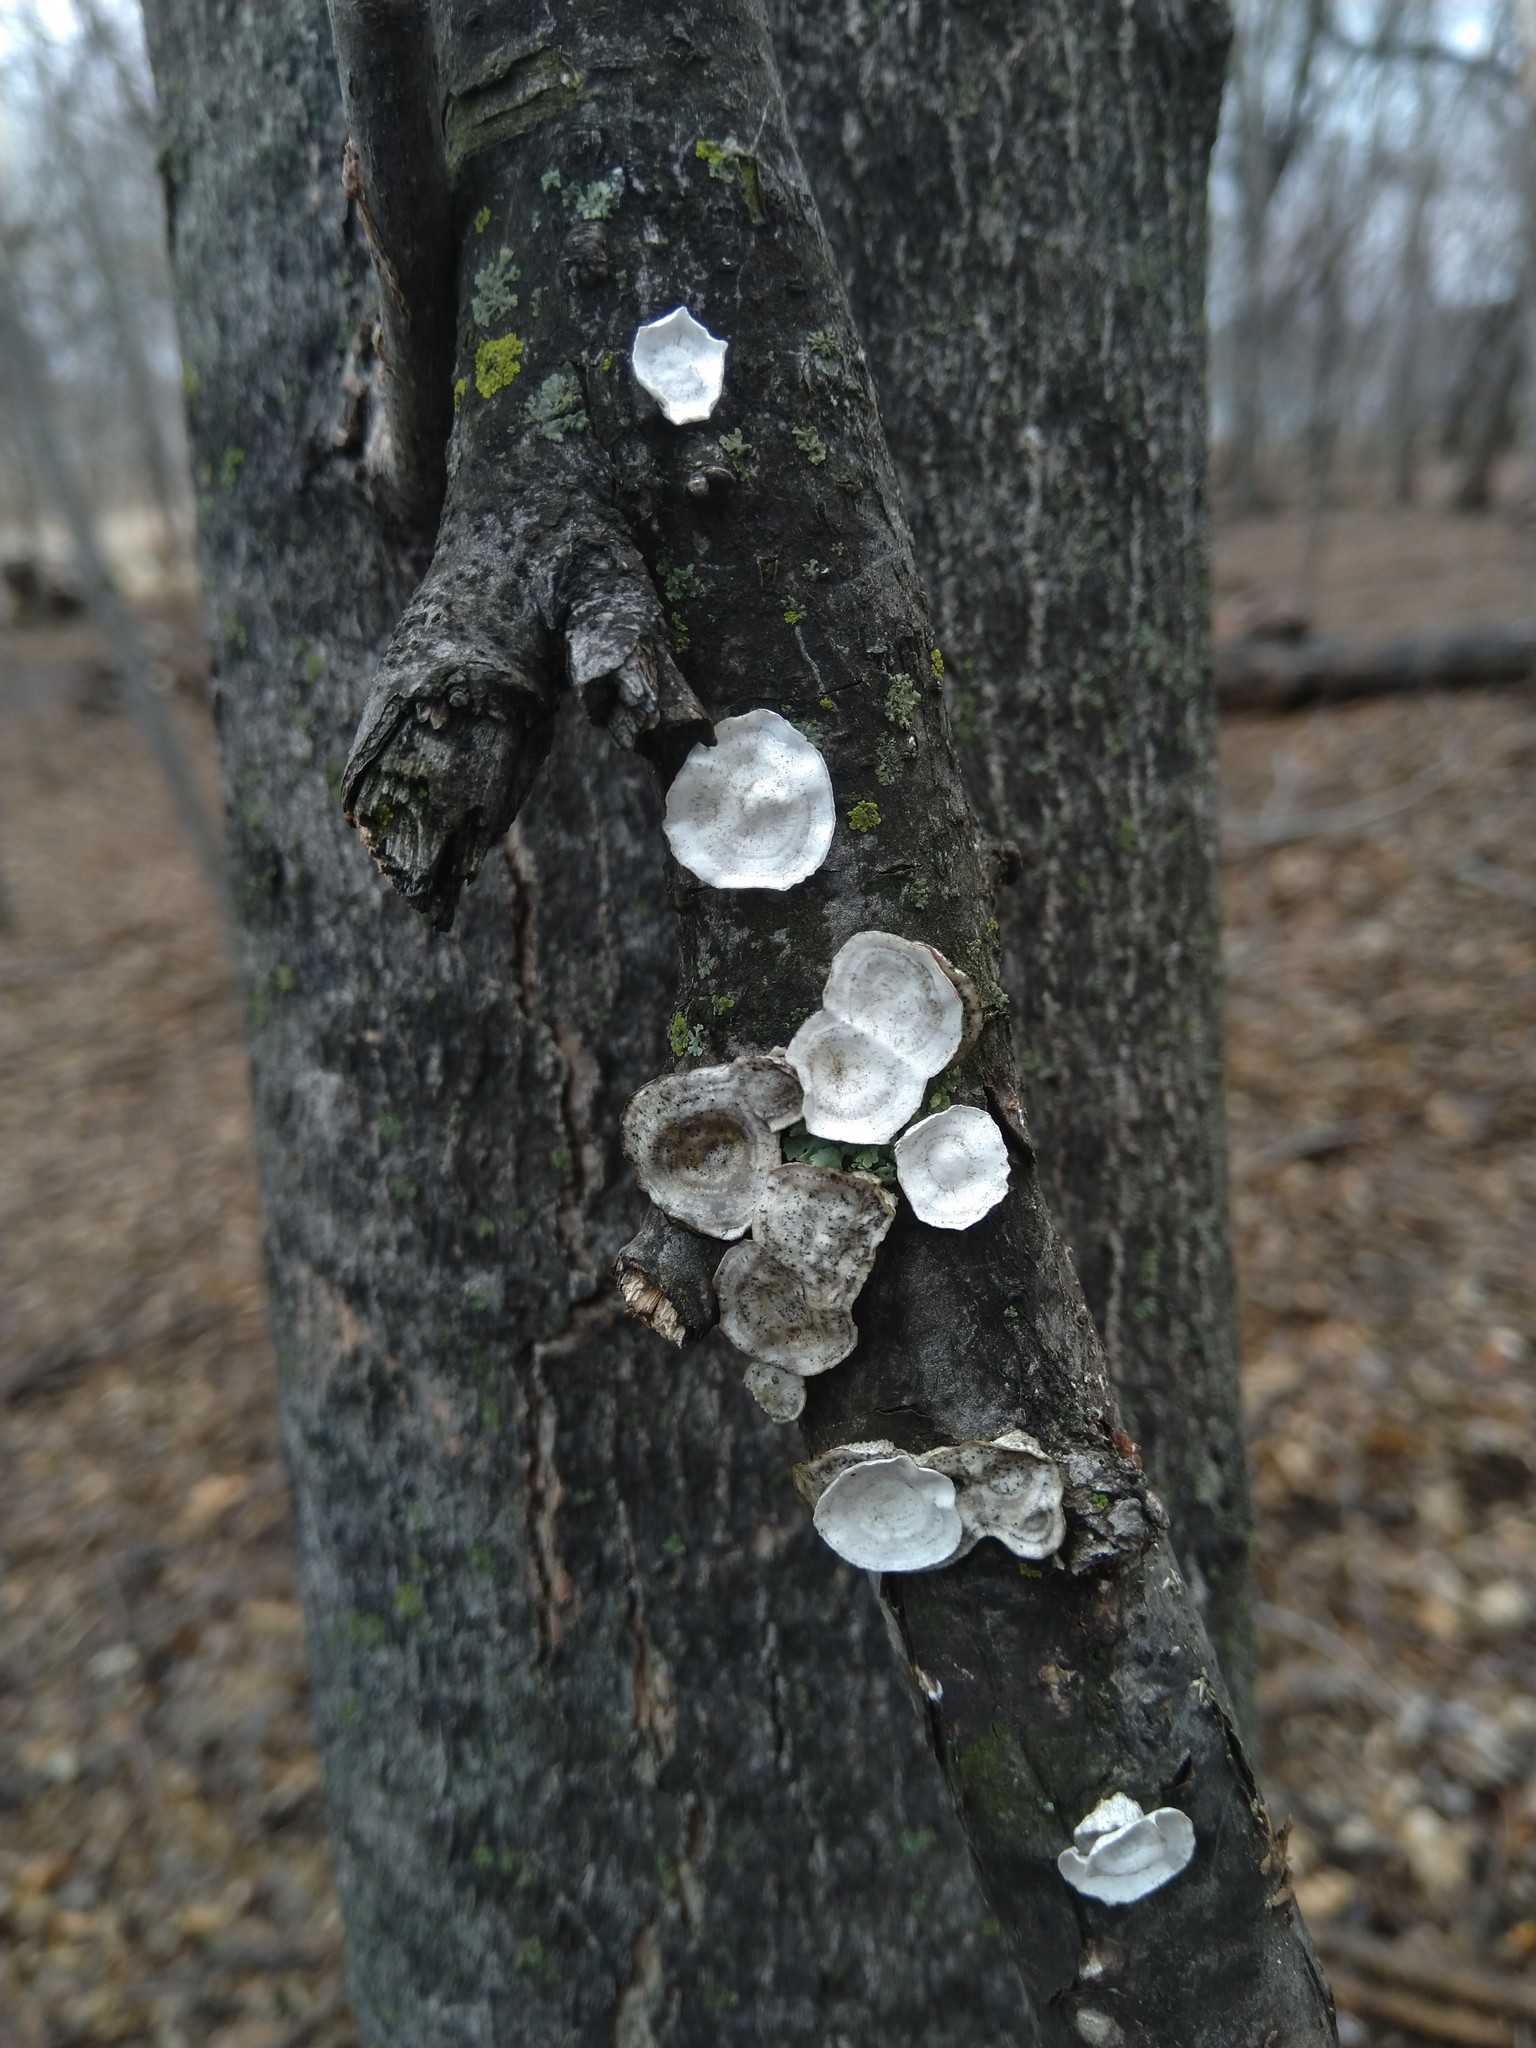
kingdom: Fungi
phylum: Basidiomycota
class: Agaricomycetes
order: Polyporales
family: Polyporaceae
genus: Poronidulus
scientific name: Poronidulus conchifer
